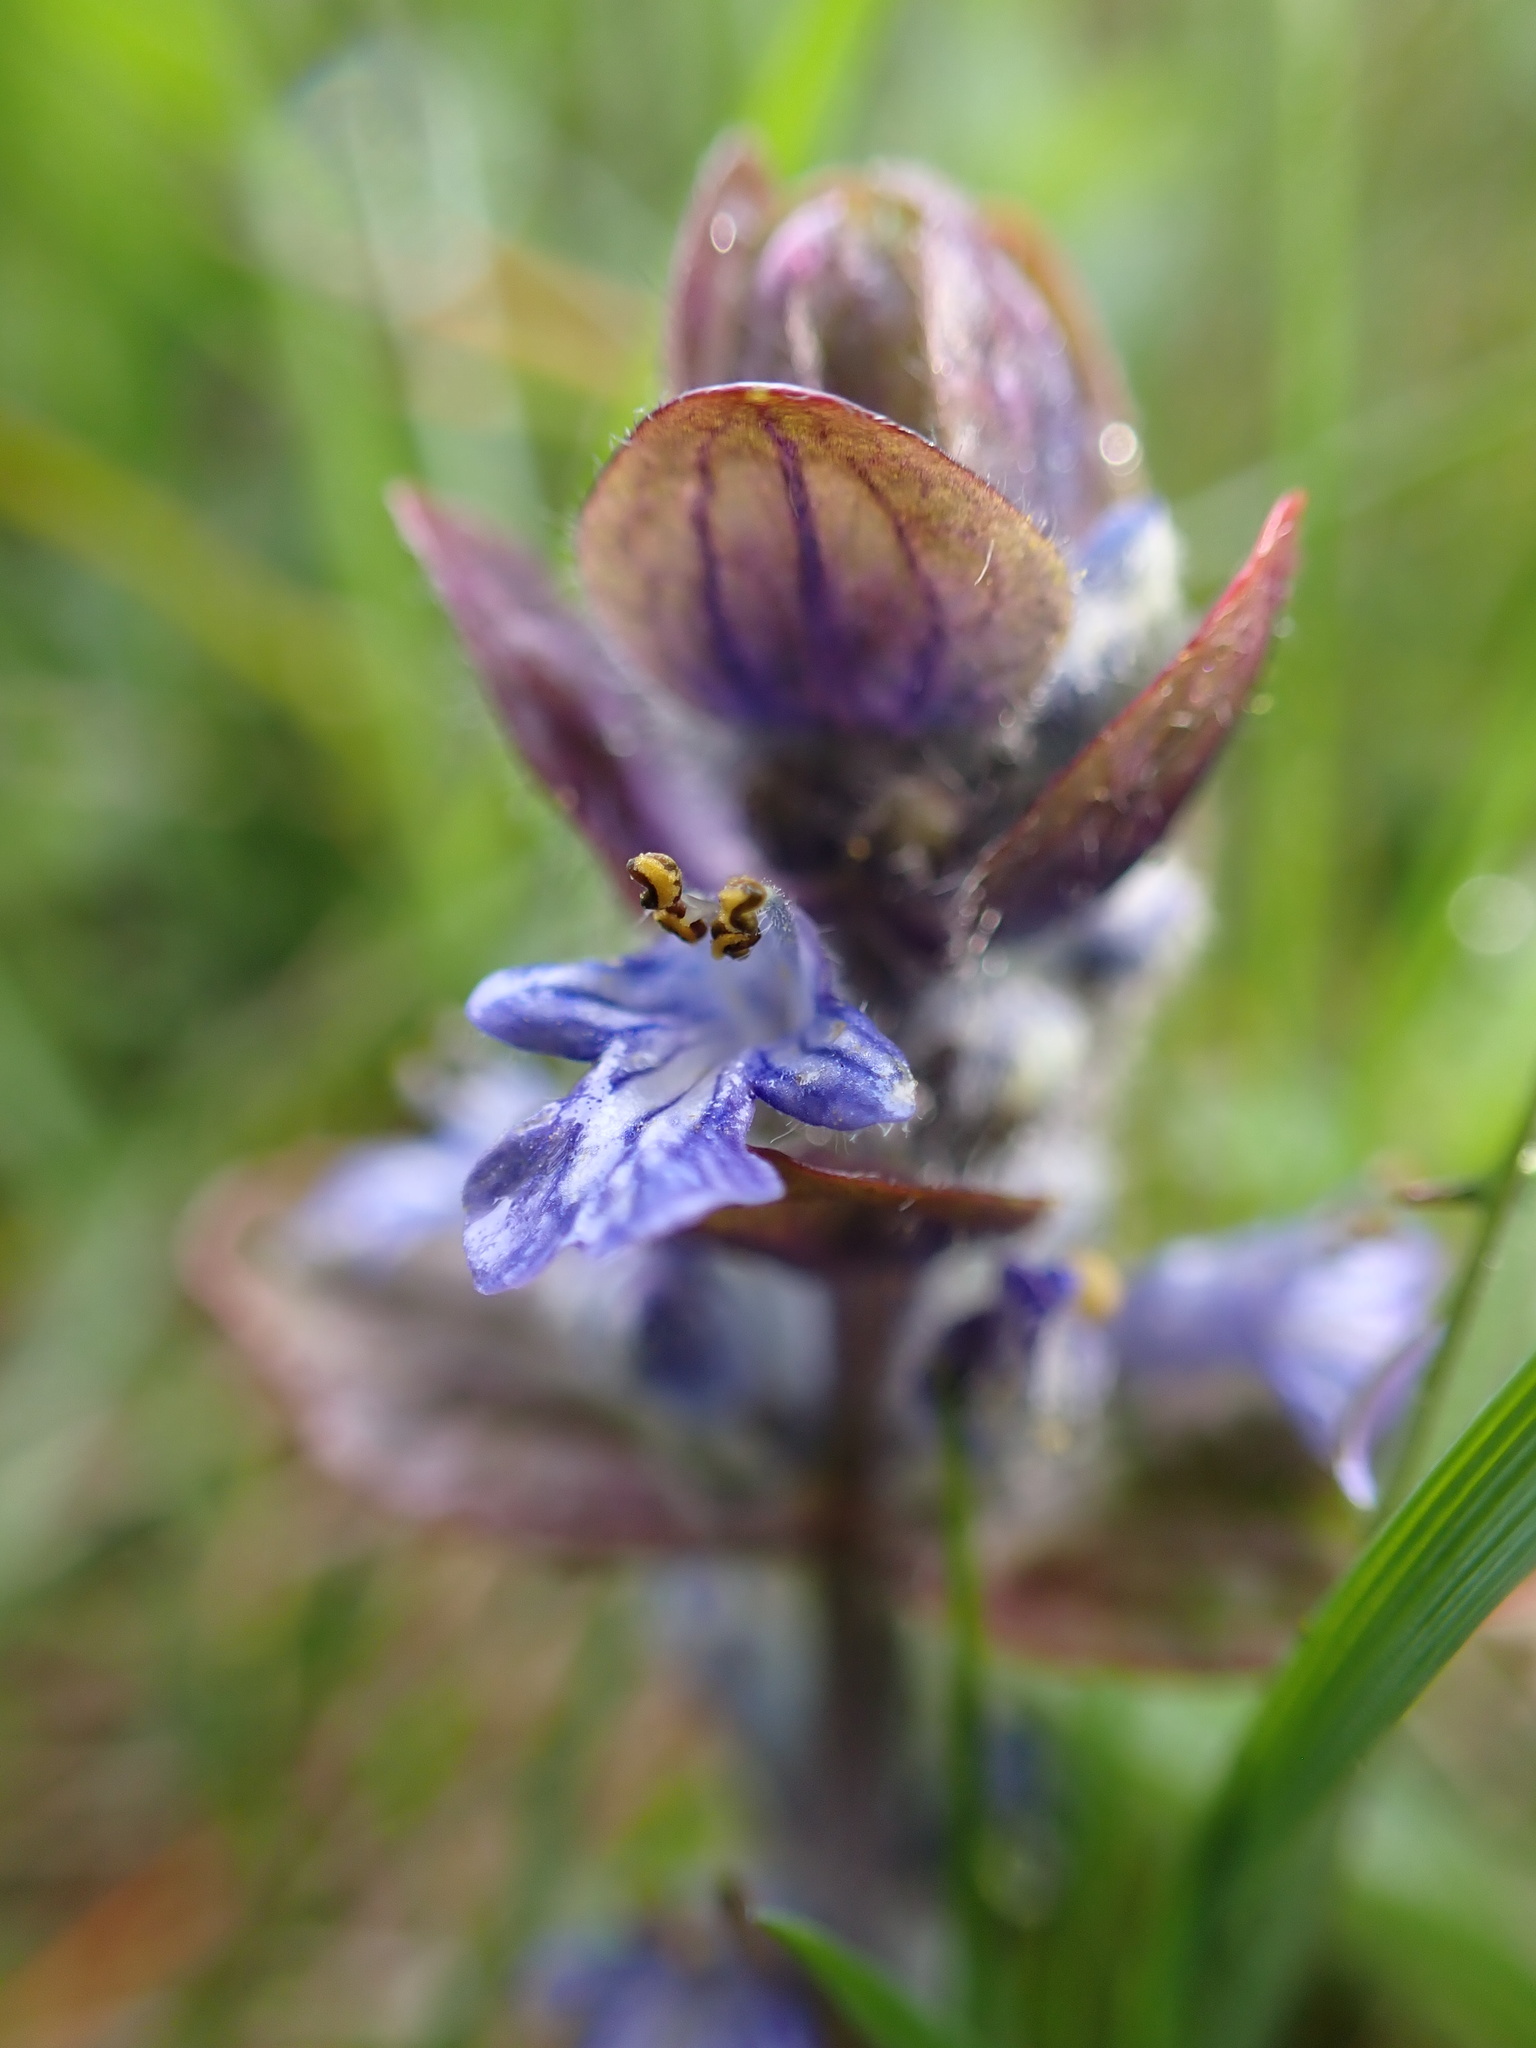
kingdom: Plantae
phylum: Tracheophyta
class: Magnoliopsida
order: Lamiales
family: Lamiaceae
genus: Ajuga
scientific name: Ajuga reptans
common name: Bugle
